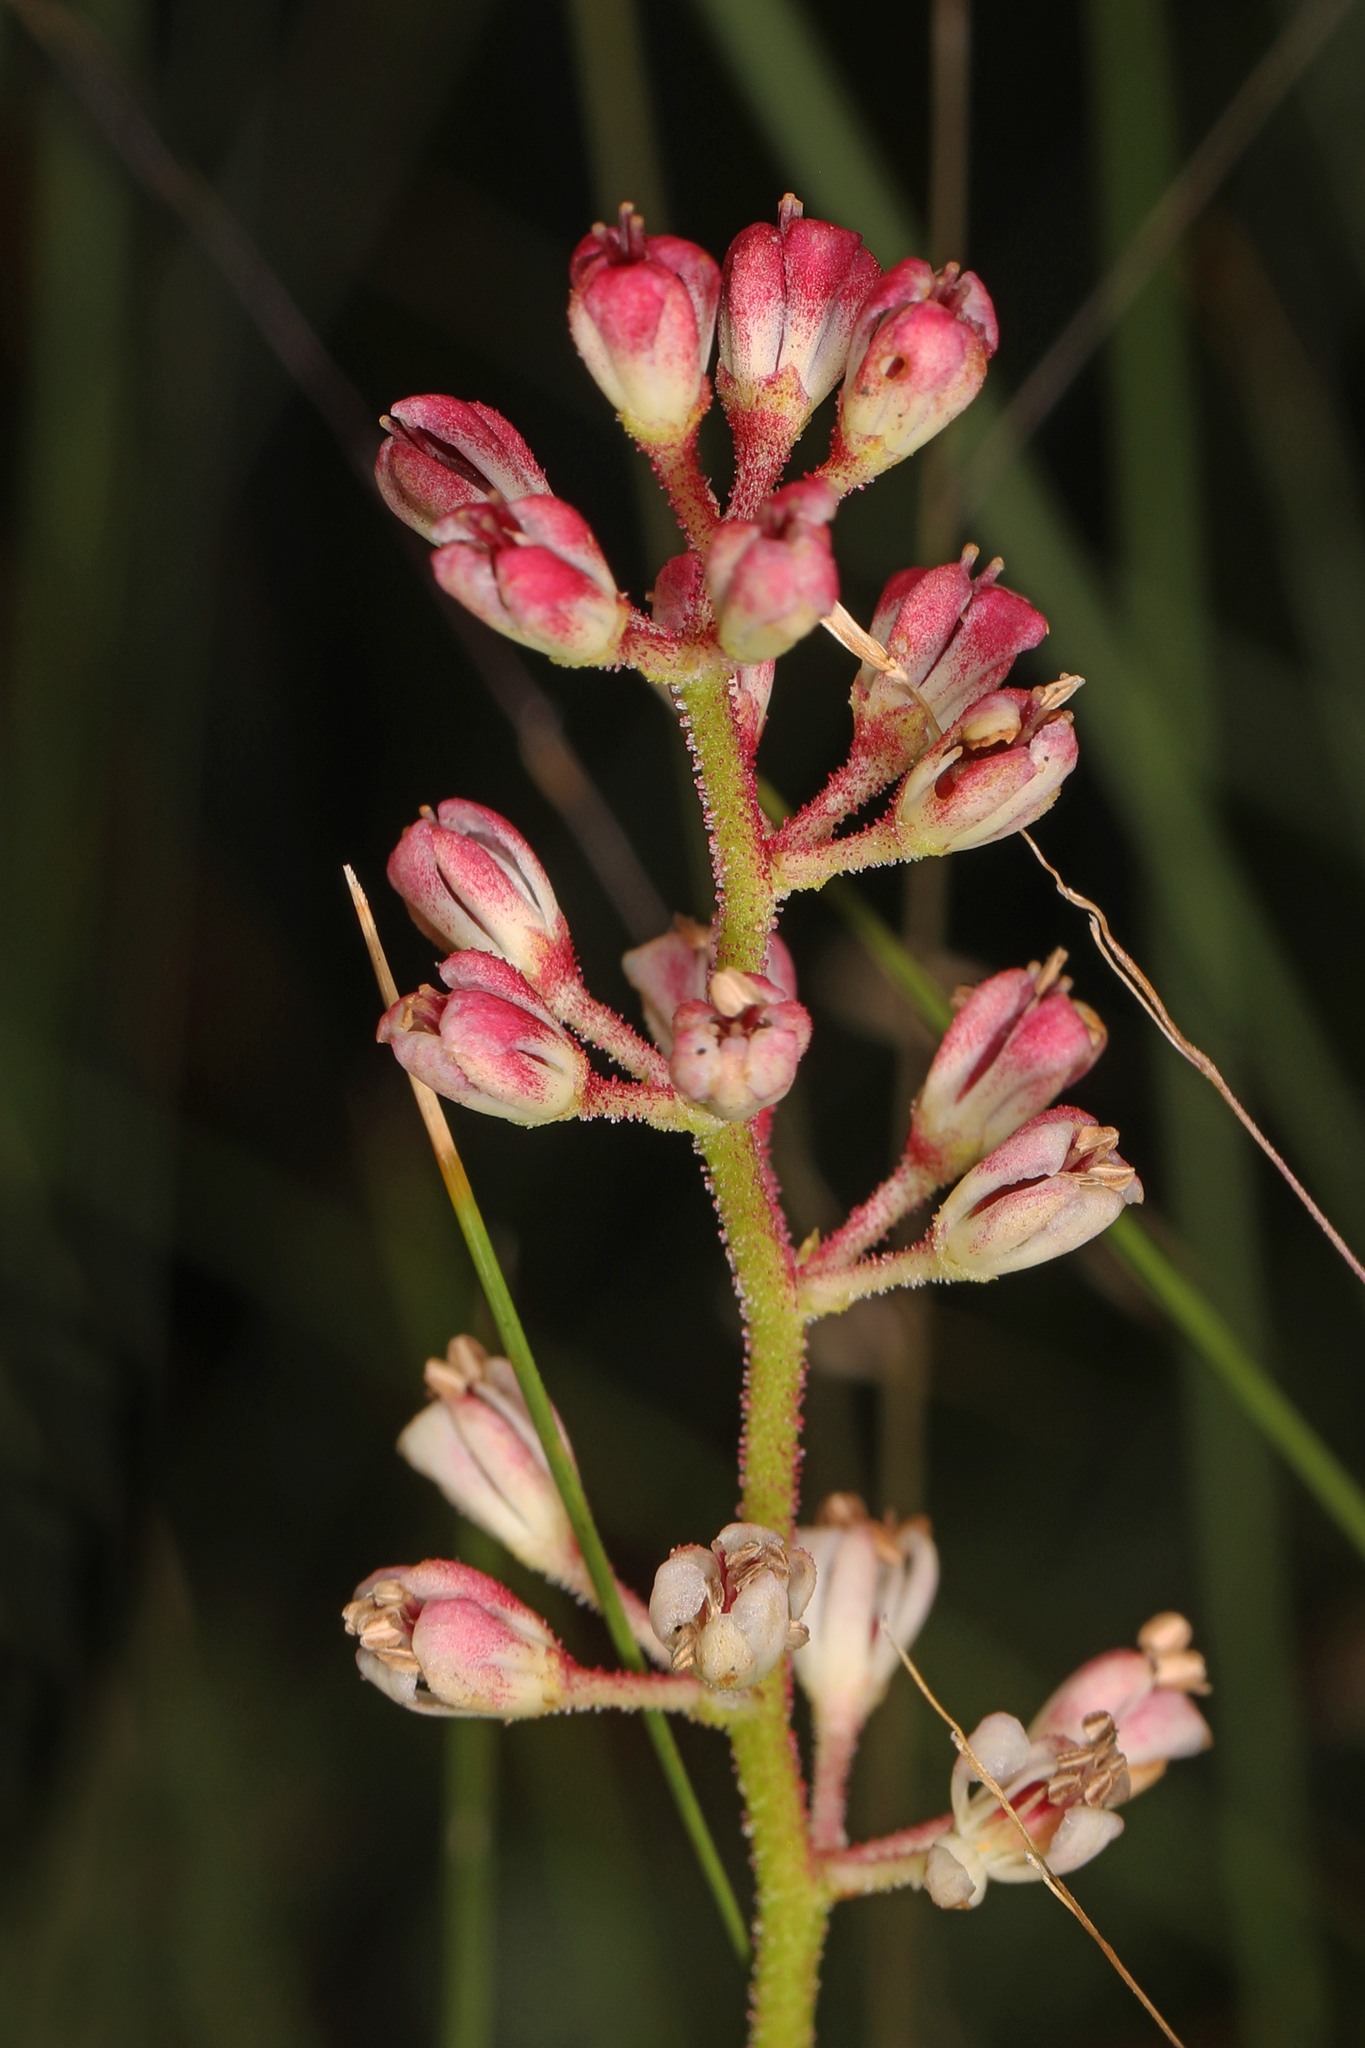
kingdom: Plantae
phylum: Tracheophyta
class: Liliopsida
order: Alismatales
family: Tofieldiaceae
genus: Triantha
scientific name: Triantha racemosa
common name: Coastal false asphodel
